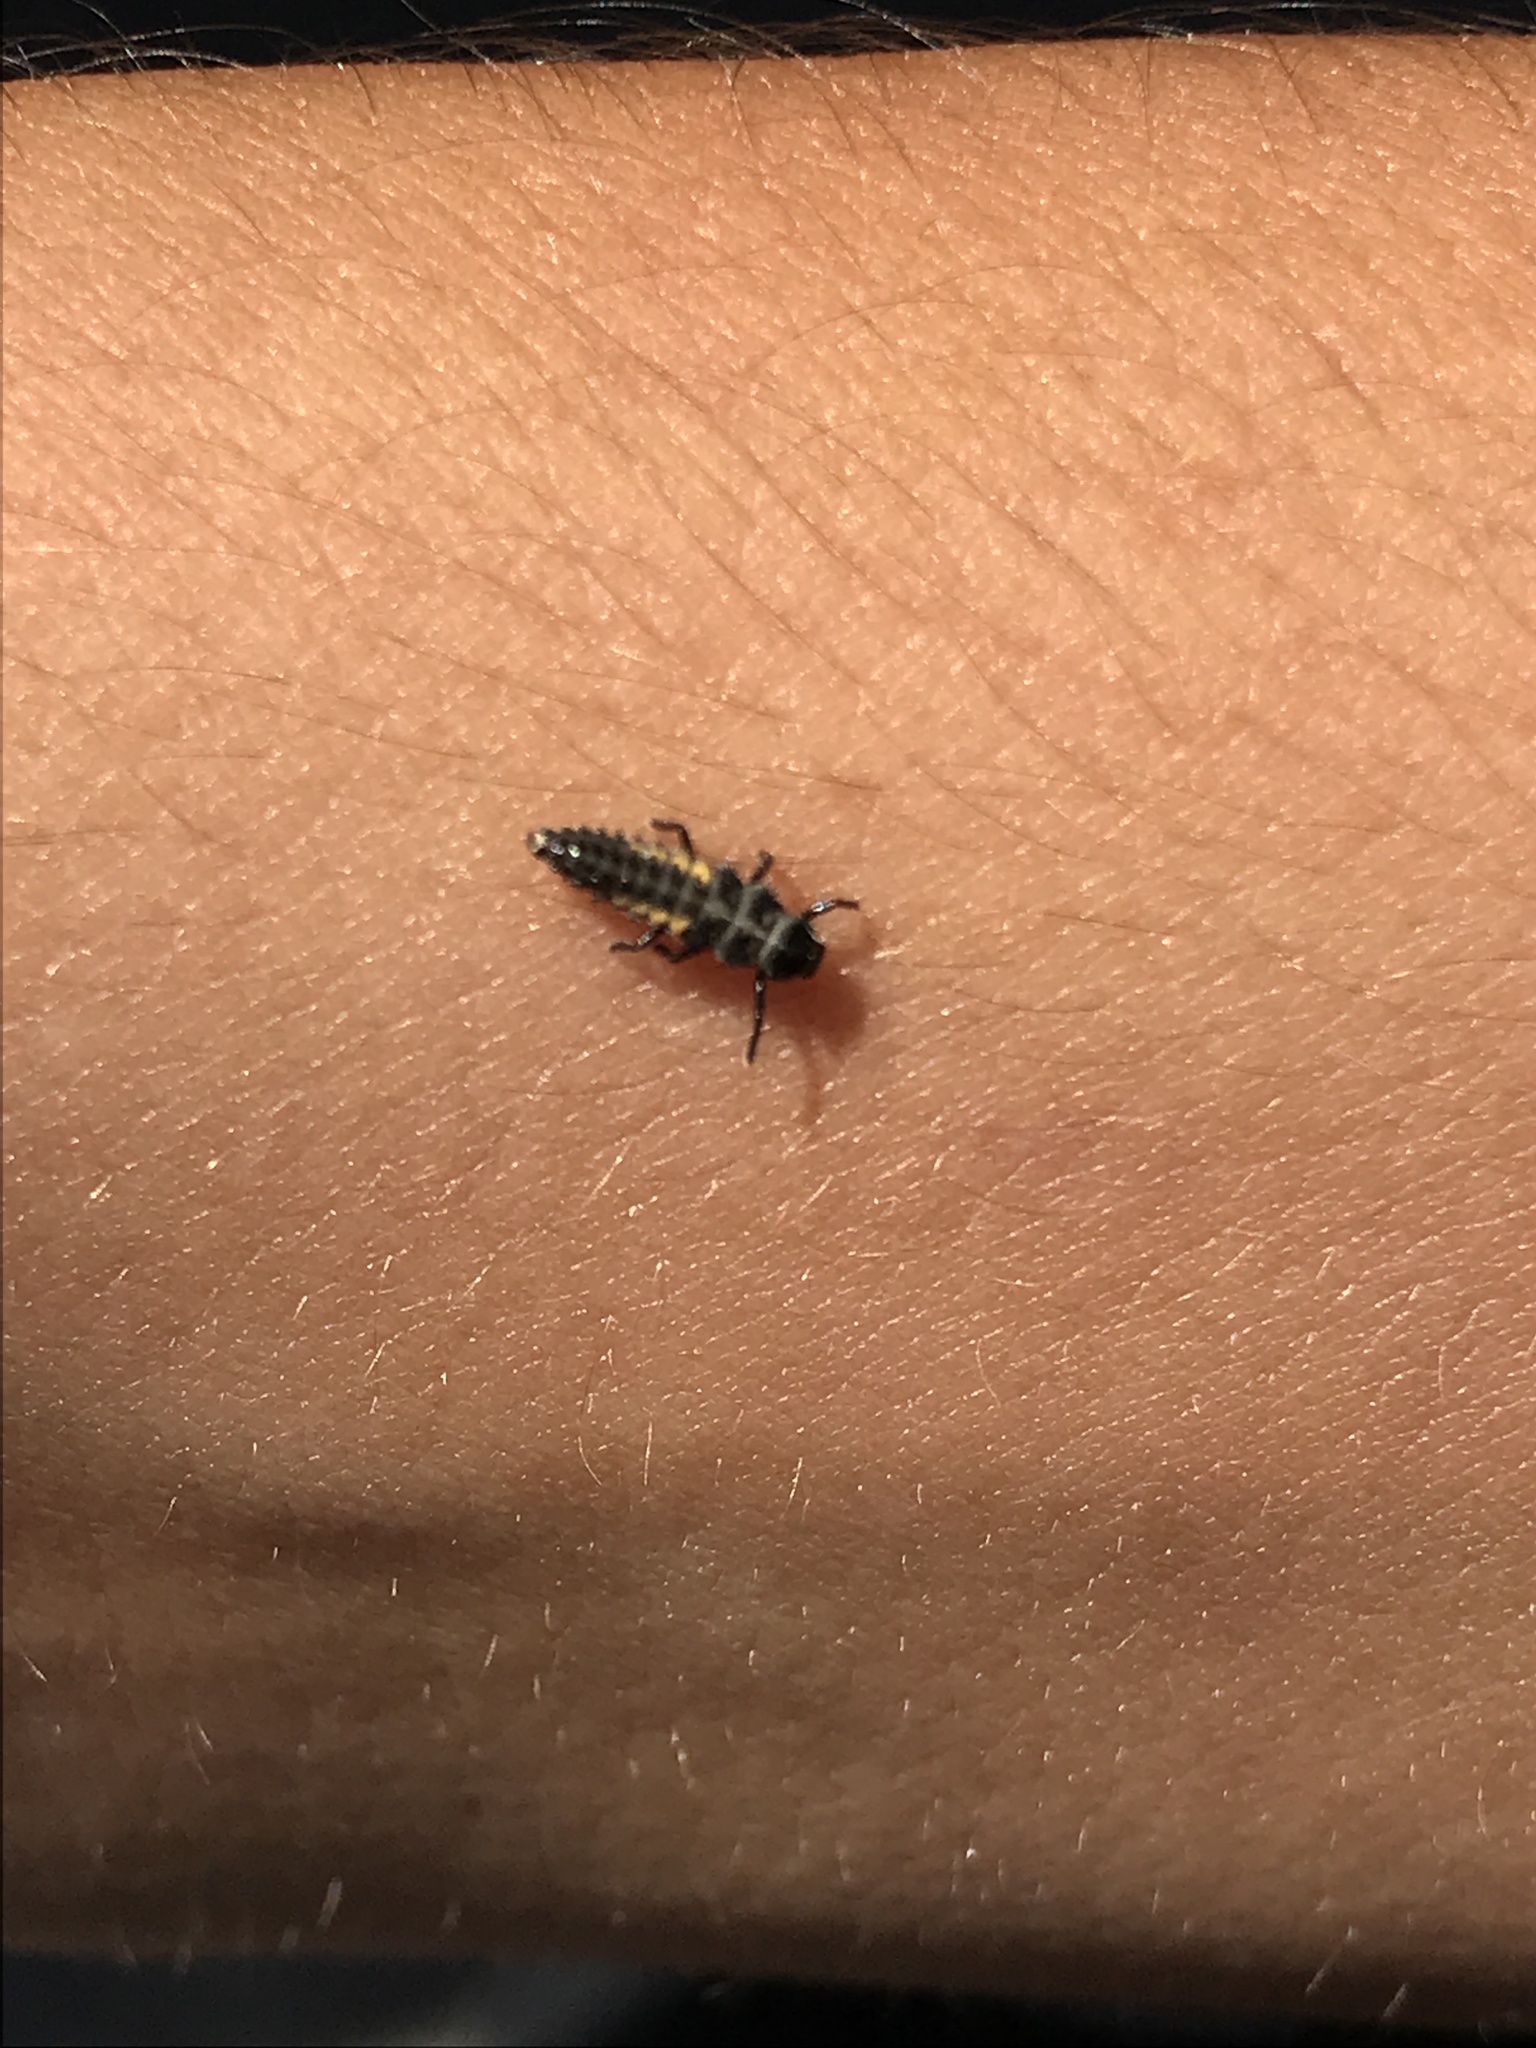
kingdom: Animalia
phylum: Arthropoda
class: Insecta
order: Coleoptera
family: Coccinellidae
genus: Harmonia
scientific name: Harmonia axyridis
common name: Harlequin ladybird
